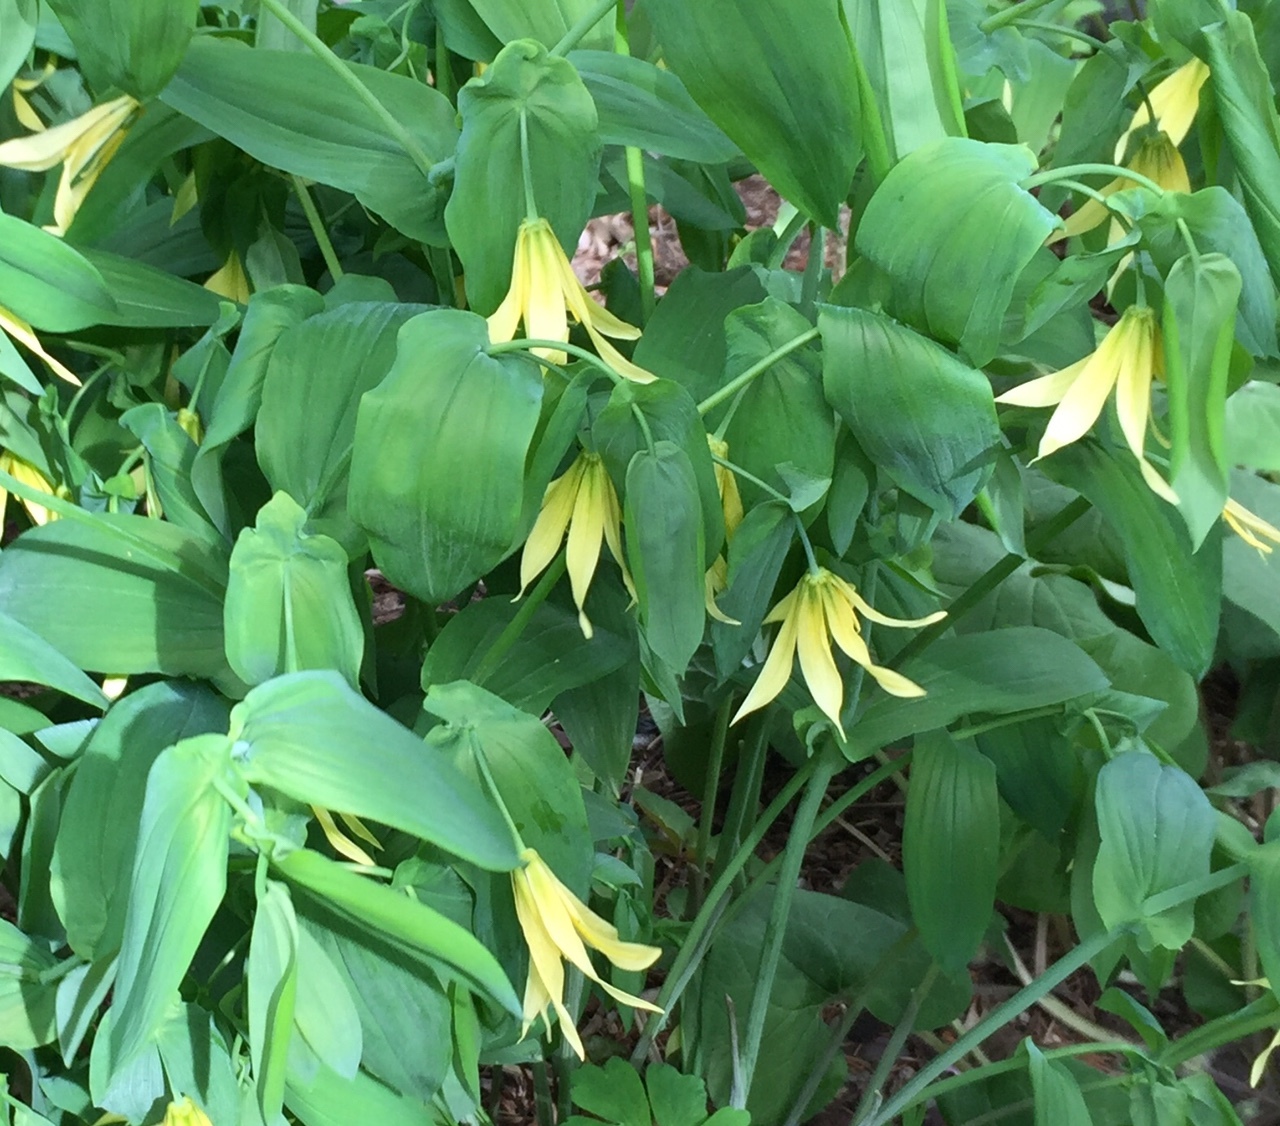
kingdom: Plantae
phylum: Tracheophyta
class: Liliopsida
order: Liliales
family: Colchicaceae
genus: Uvularia
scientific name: Uvularia grandiflora
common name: Bellwort
